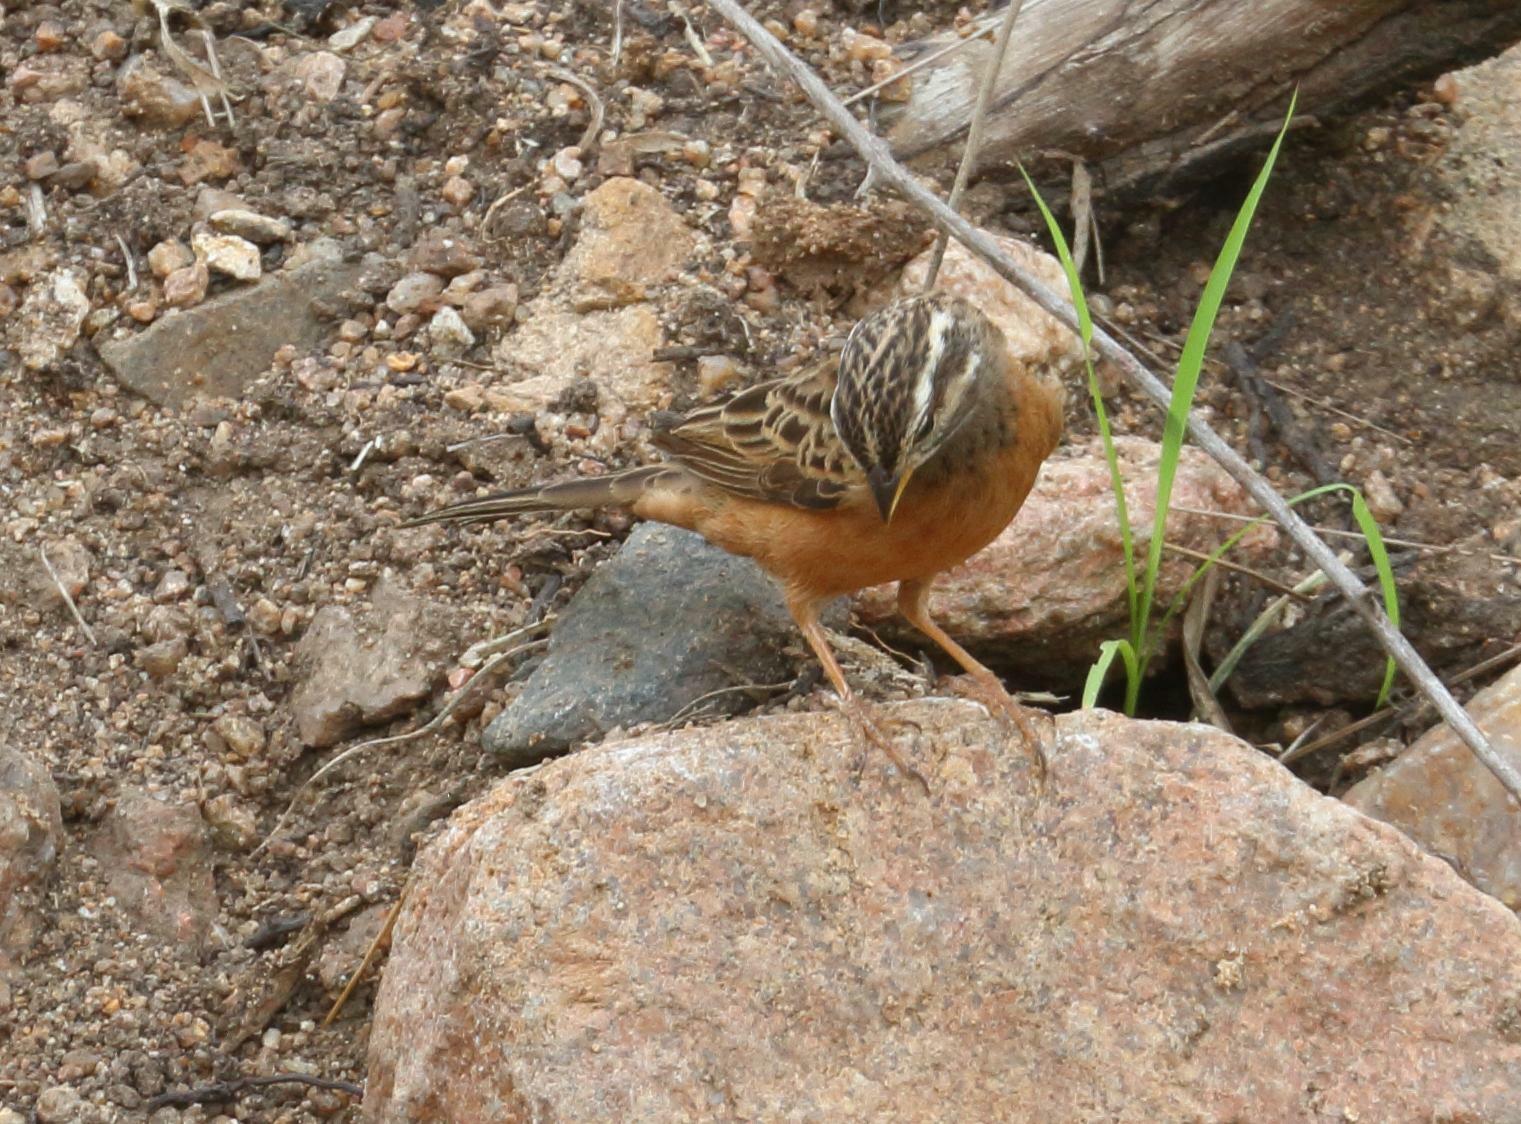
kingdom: Animalia
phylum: Chordata
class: Aves
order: Passeriformes
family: Emberizidae
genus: Emberiza
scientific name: Emberiza tahapisi
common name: Cinnamon-breasted bunting
